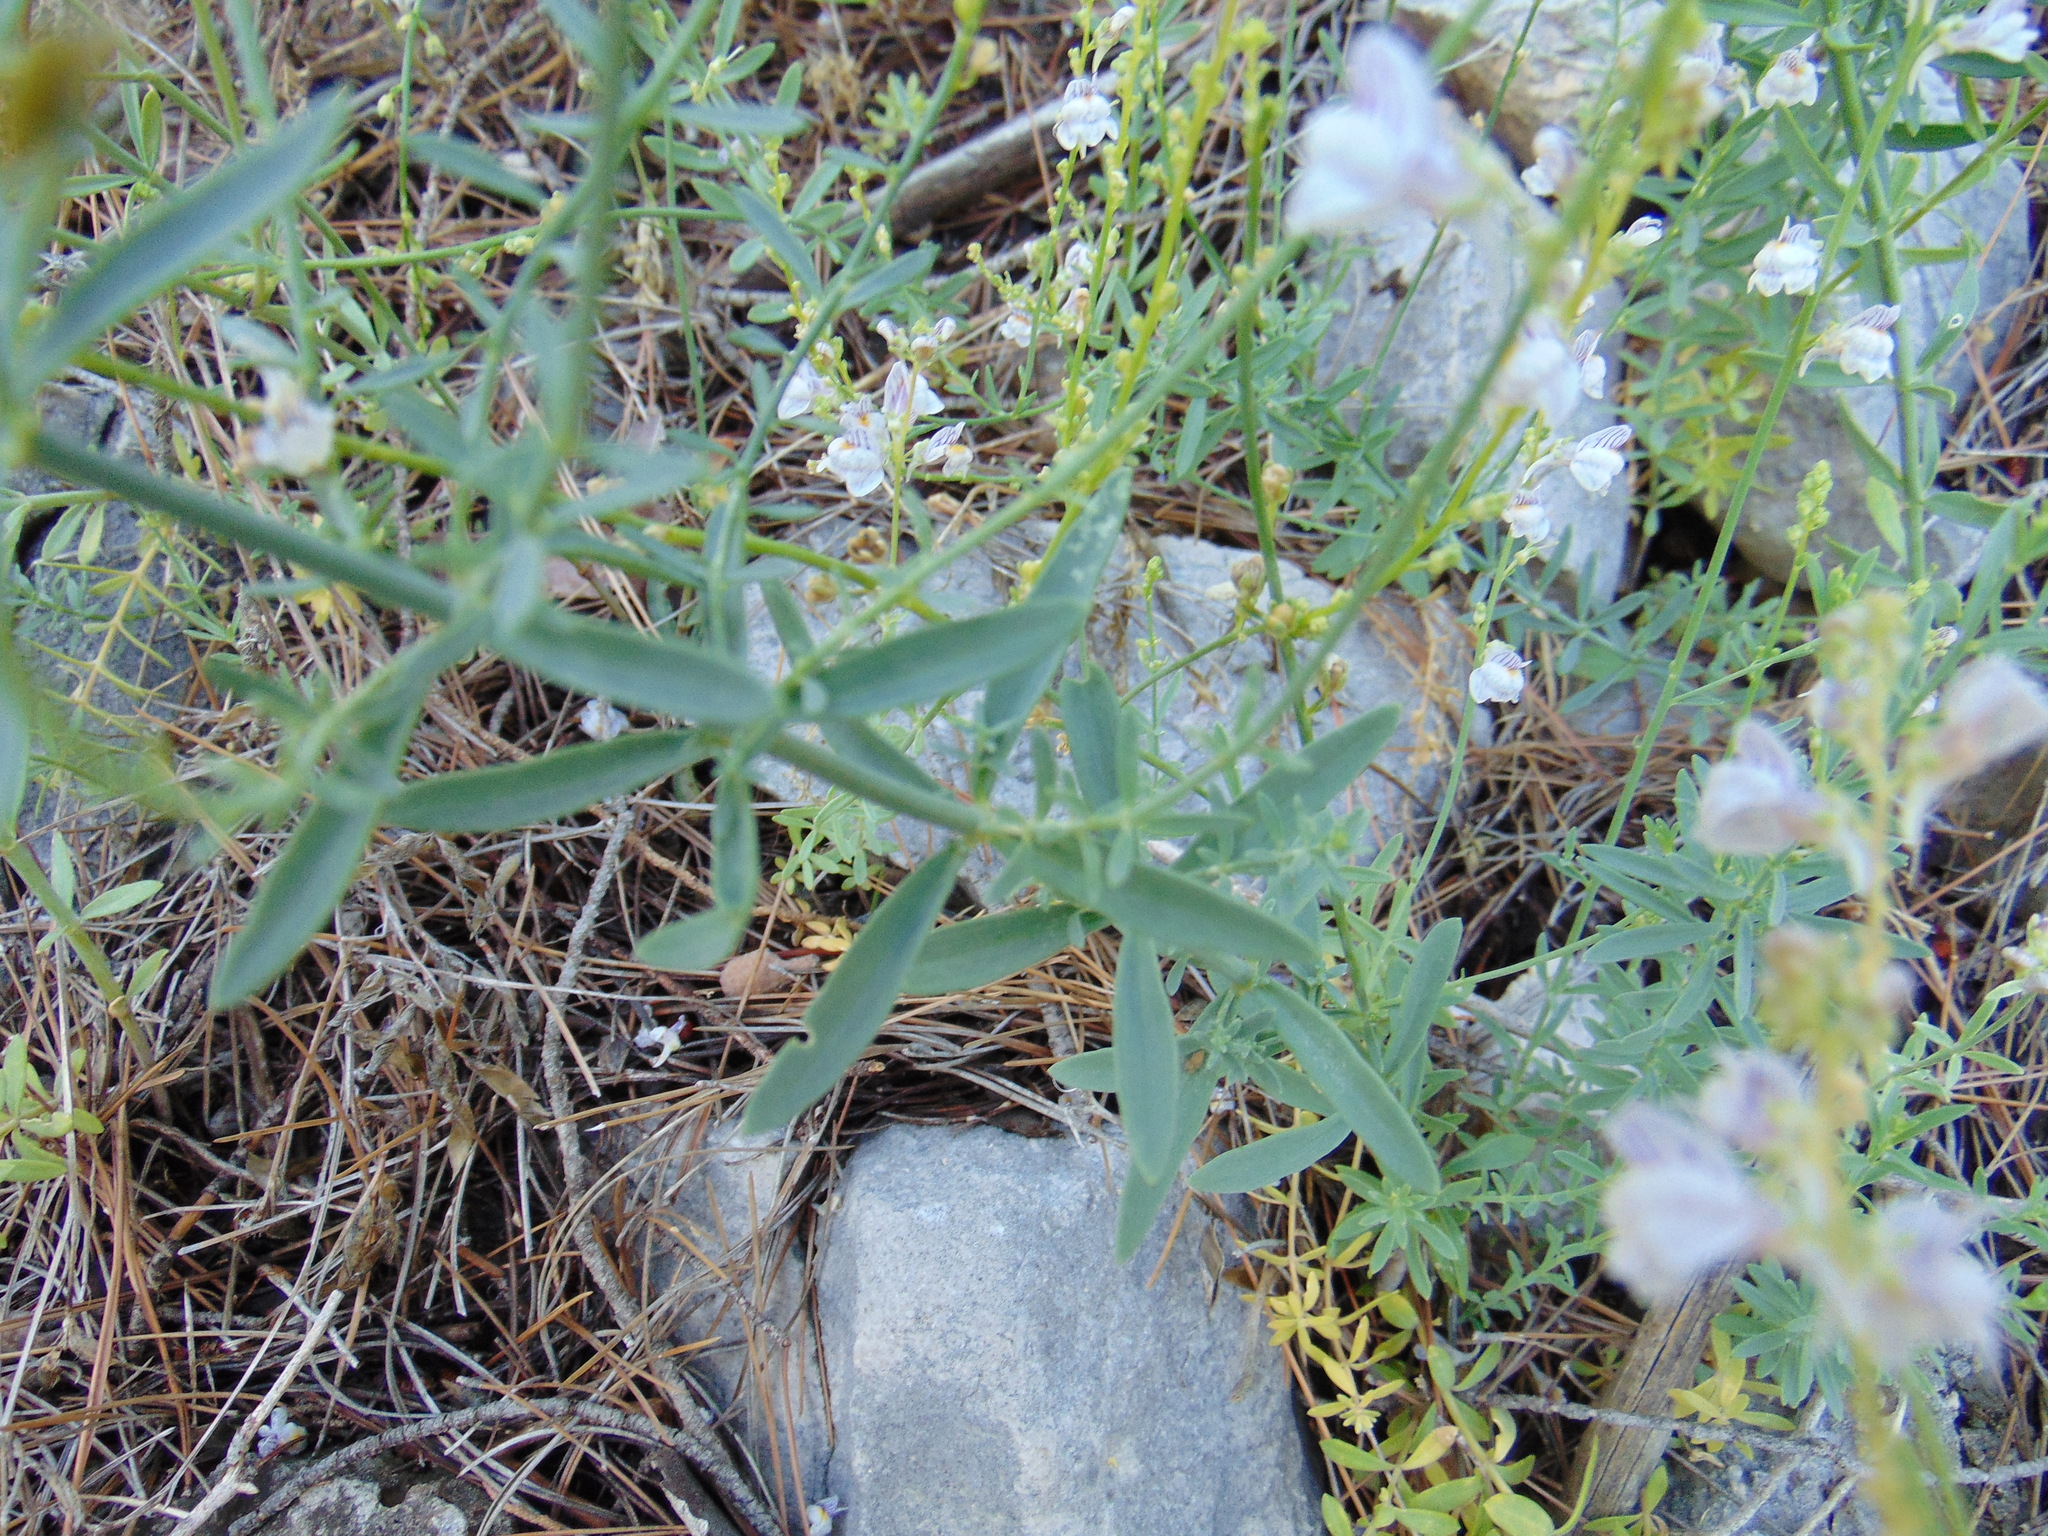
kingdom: Plantae
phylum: Tracheophyta
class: Magnoliopsida
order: Lamiales
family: Plantaginaceae
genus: Linaria
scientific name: Linaria microsepala
